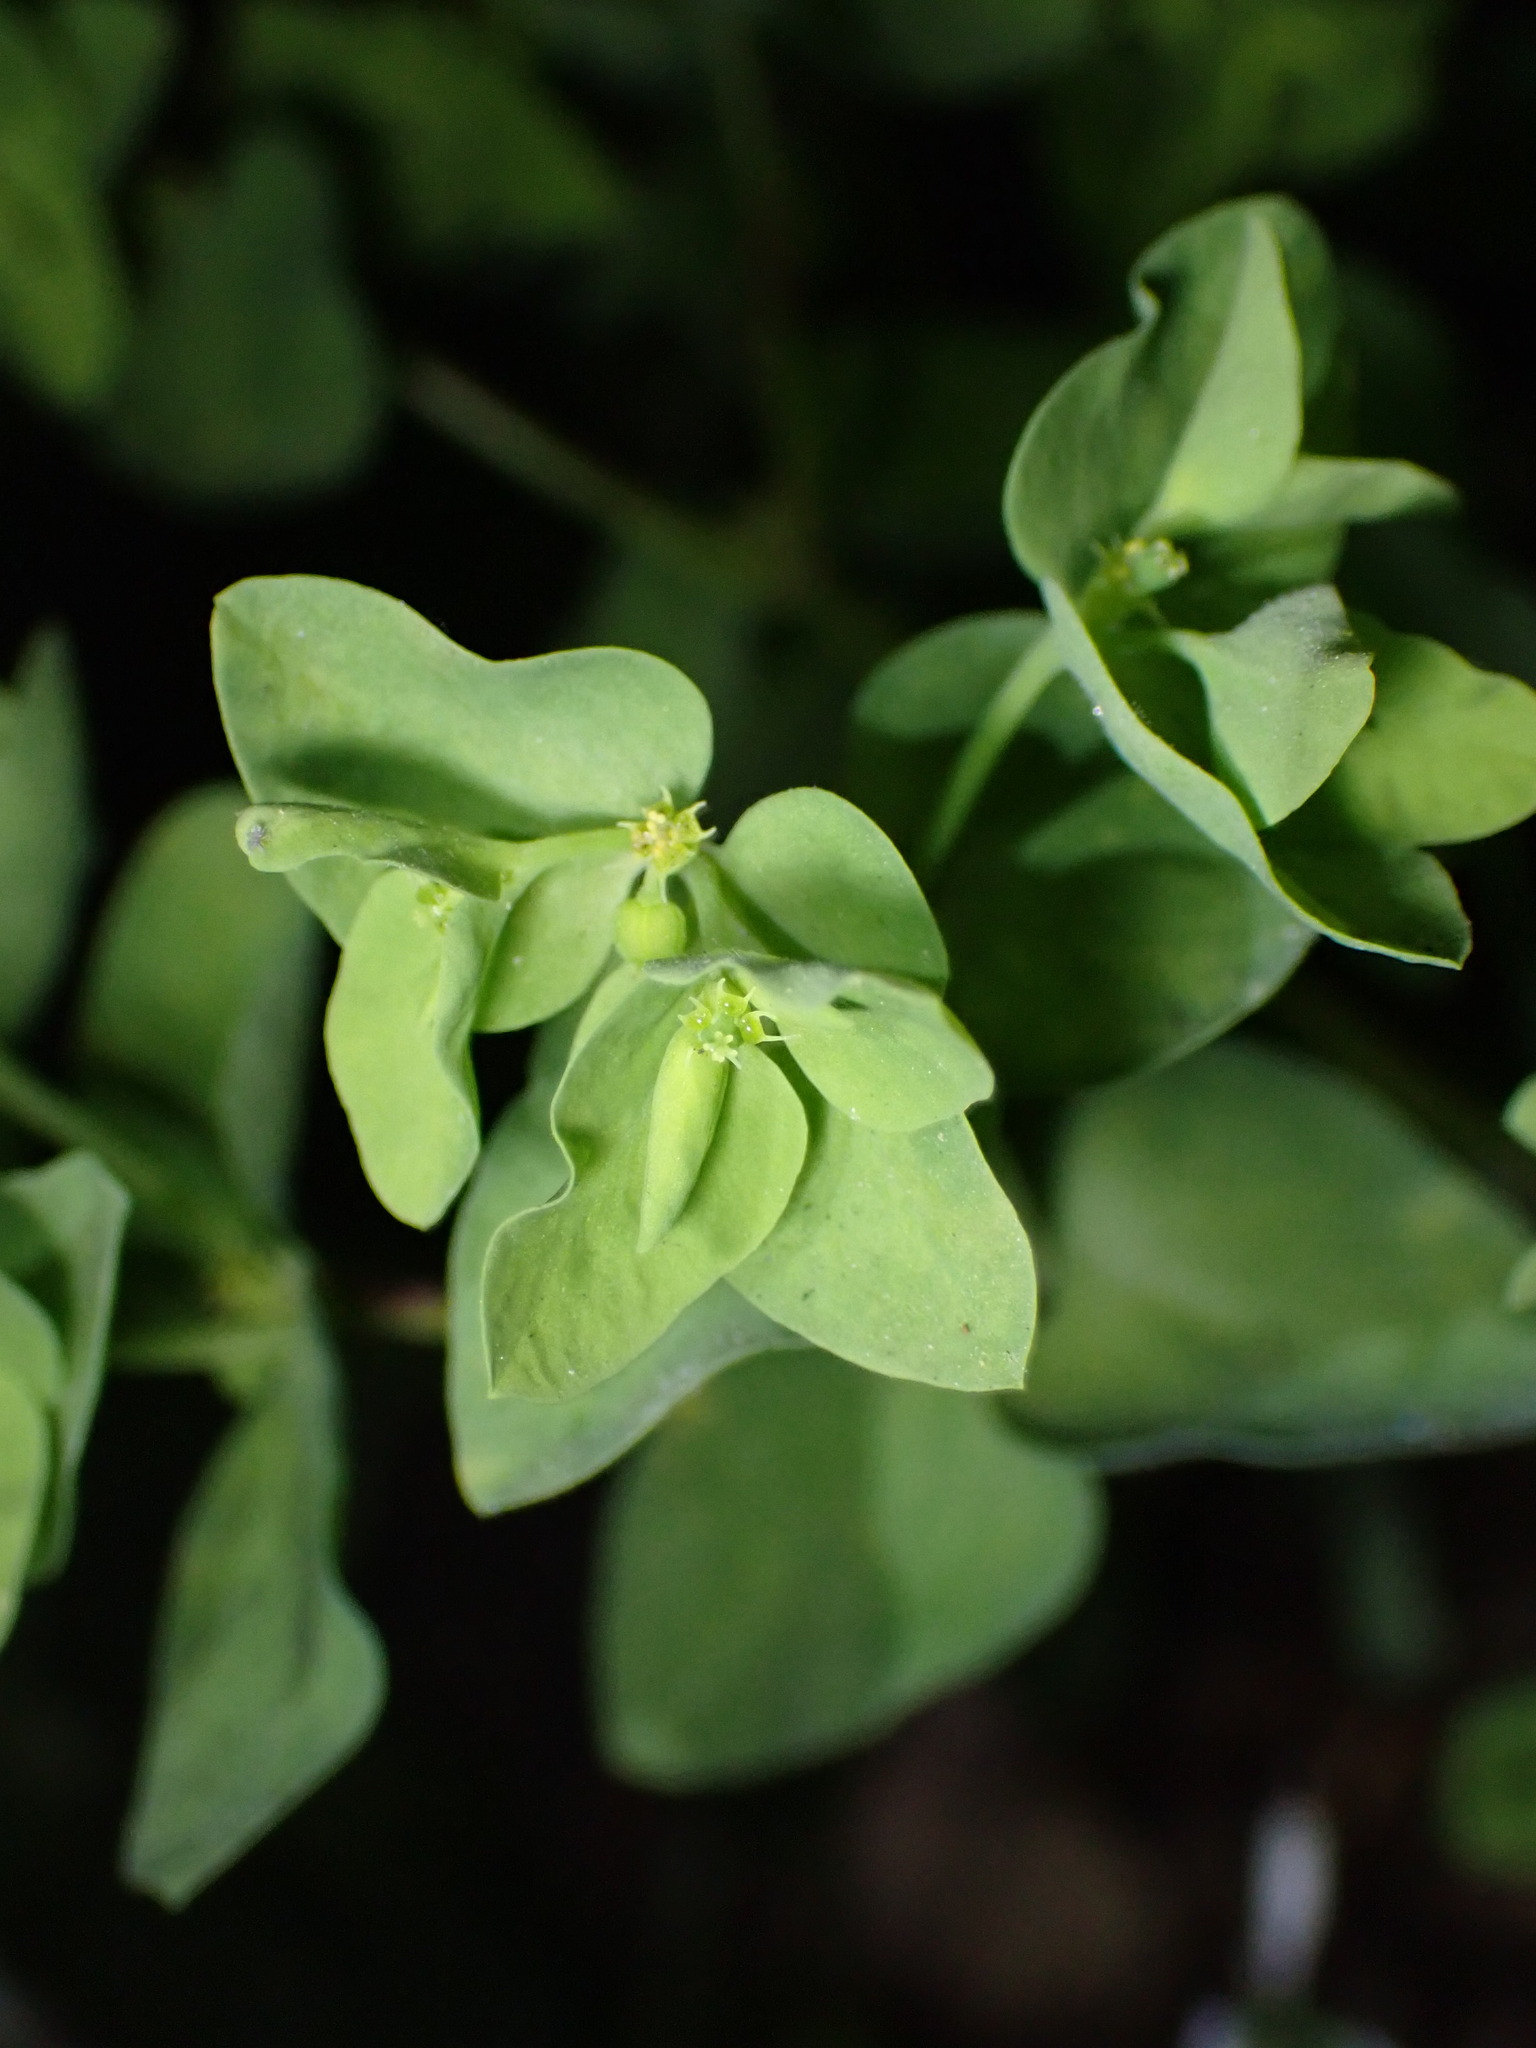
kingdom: Plantae
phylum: Tracheophyta
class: Magnoliopsida
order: Malpighiales
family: Euphorbiaceae
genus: Euphorbia
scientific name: Euphorbia peplus
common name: Petty spurge
